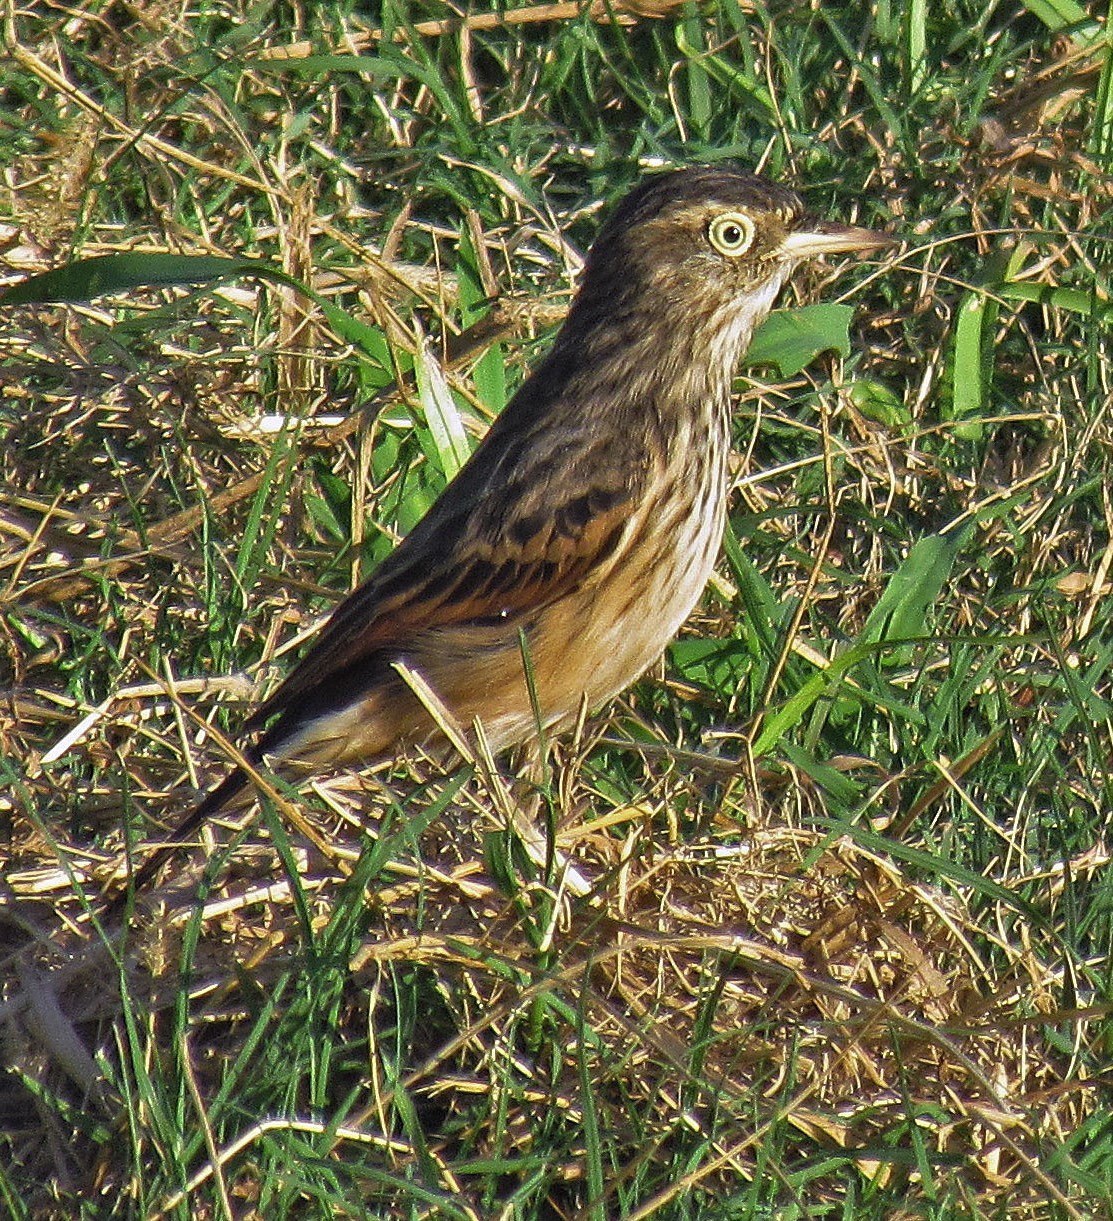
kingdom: Animalia
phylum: Chordata
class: Aves
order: Passeriformes
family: Tyrannidae
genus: Hymenops
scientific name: Hymenops perspicillatus
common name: Spectacled tyrant
